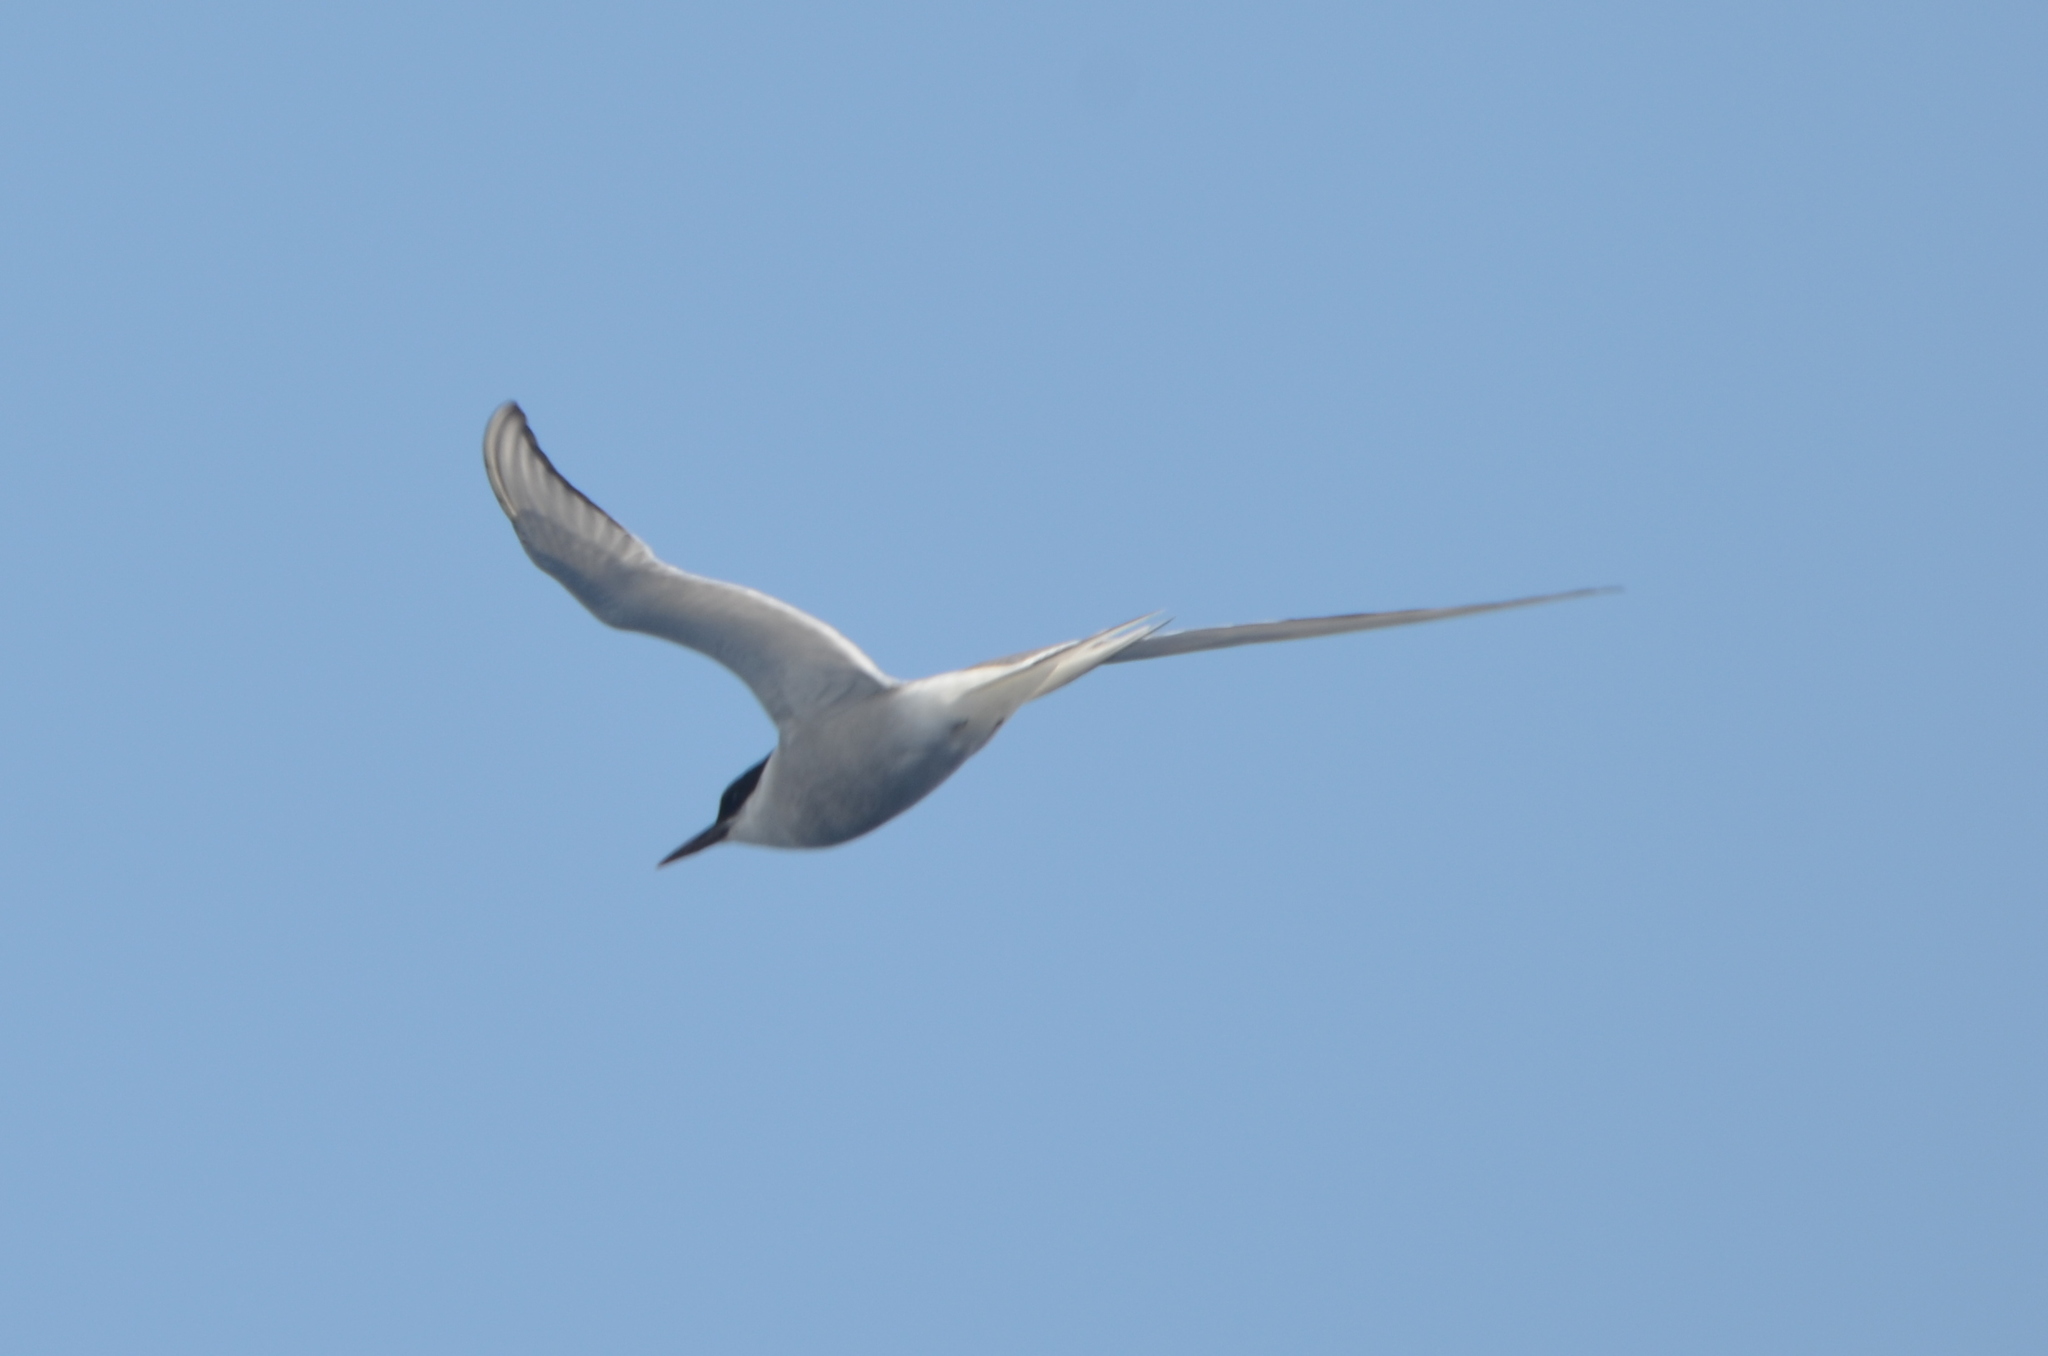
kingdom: Animalia
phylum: Chordata
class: Aves
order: Charadriiformes
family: Laridae
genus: Sterna
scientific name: Sterna paradisaea
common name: Arctic tern
